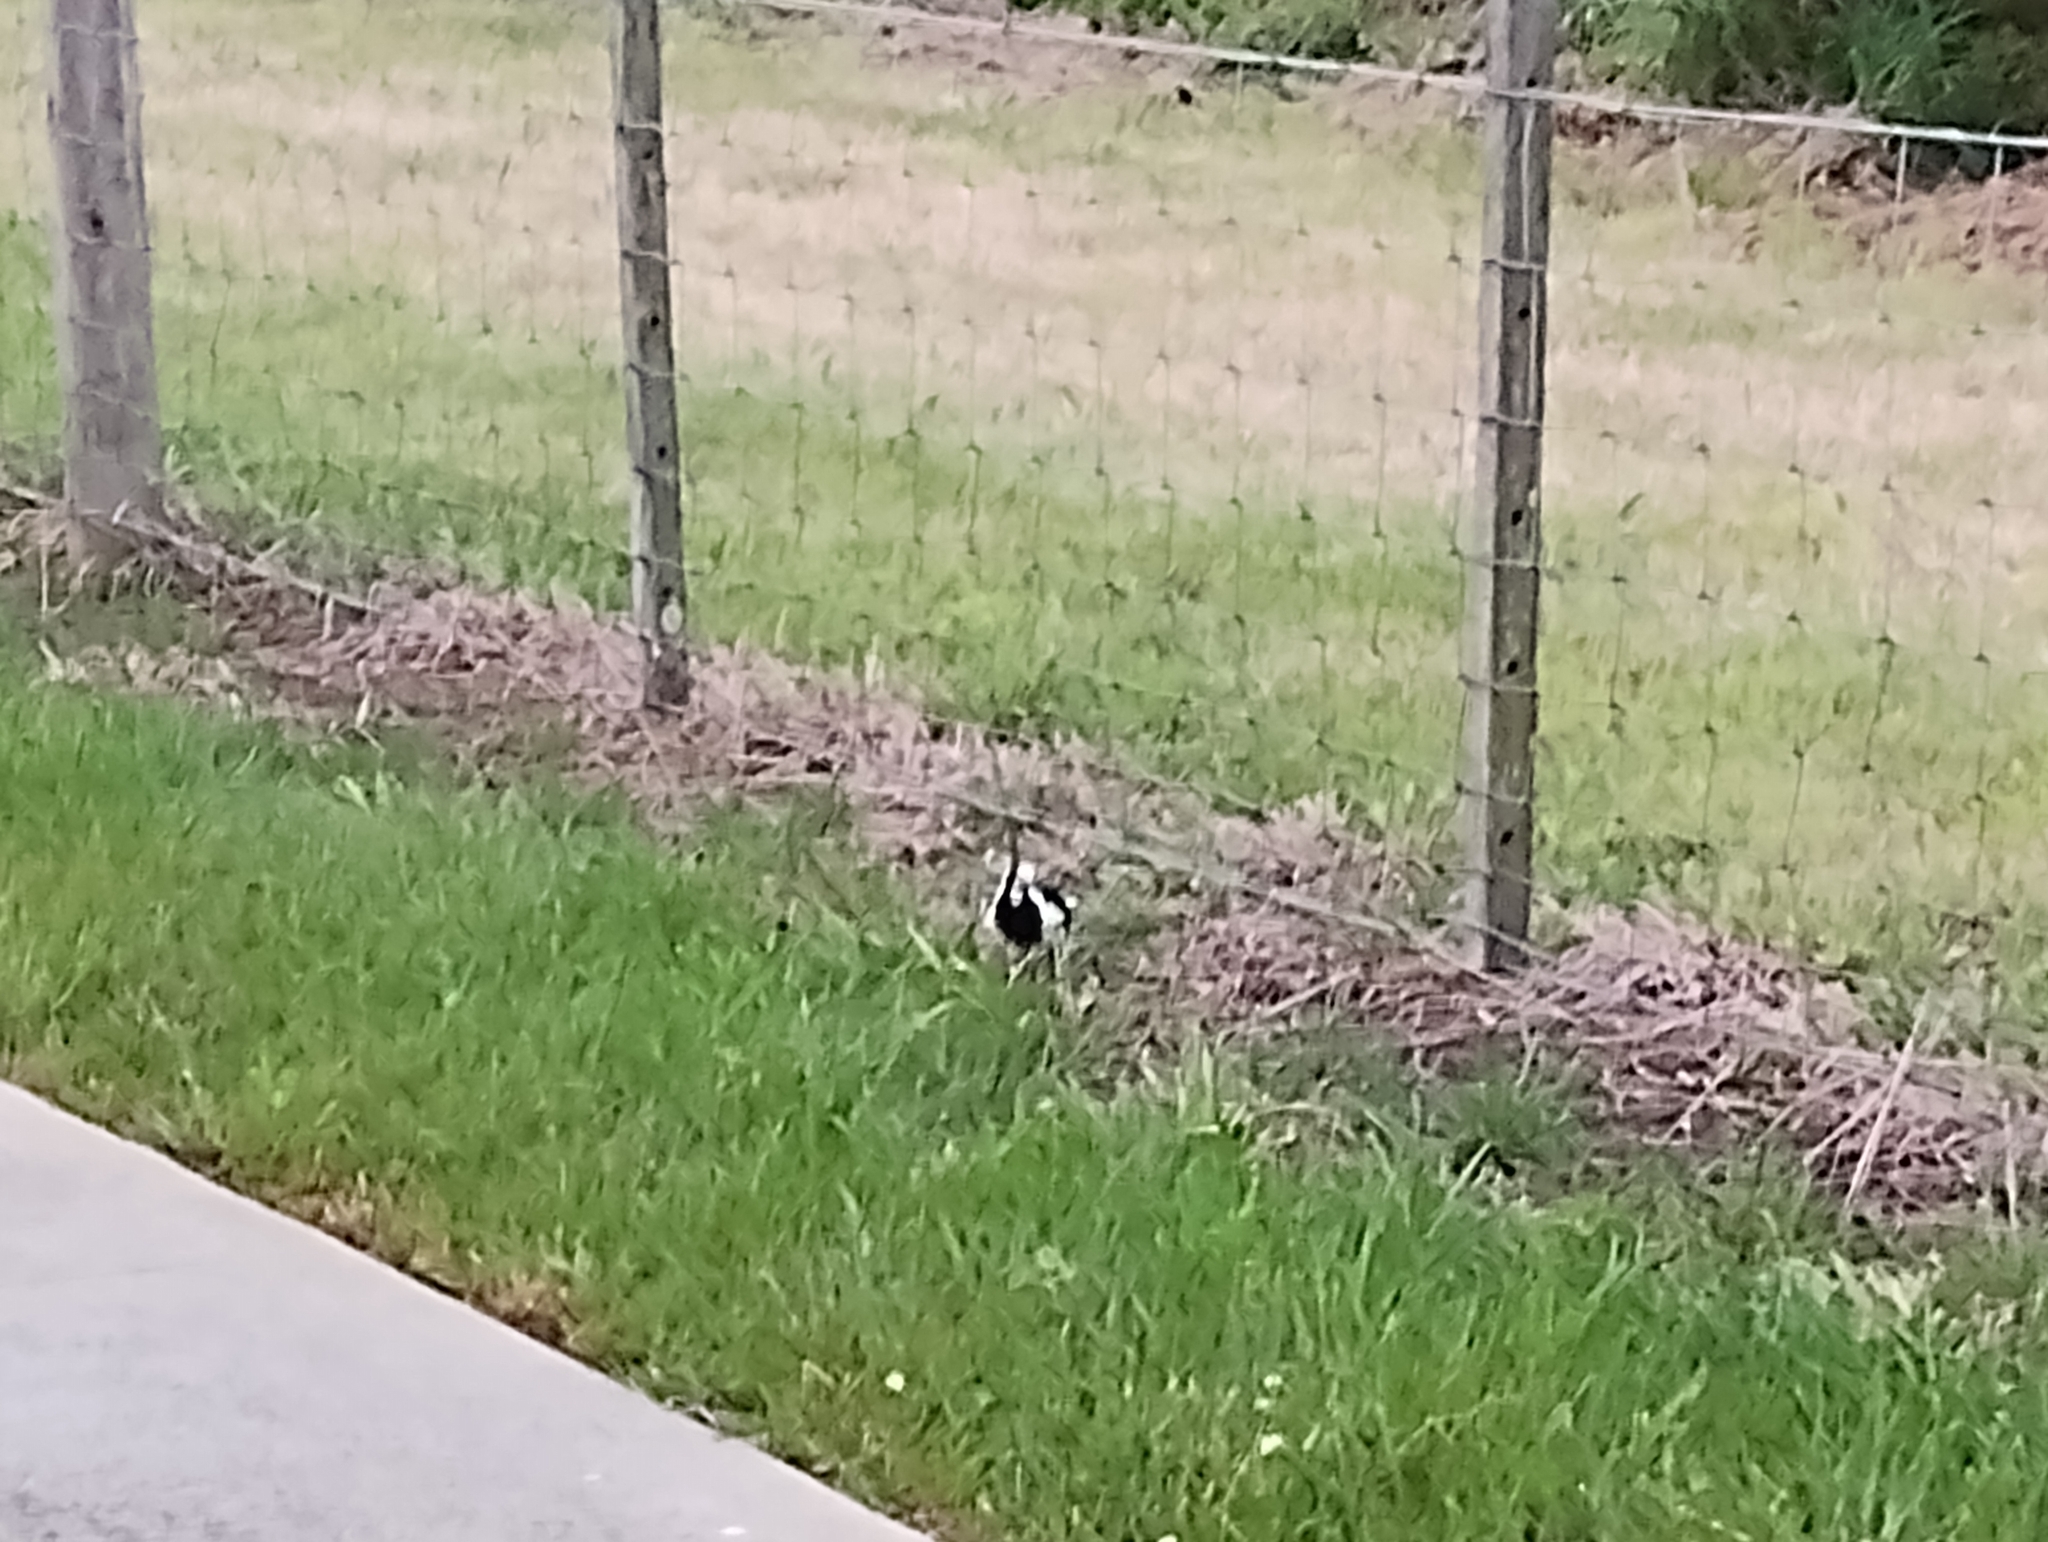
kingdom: Animalia
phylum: Chordata
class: Aves
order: Passeriformes
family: Monarchidae
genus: Grallina
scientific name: Grallina cyanoleuca
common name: Magpie-lark
